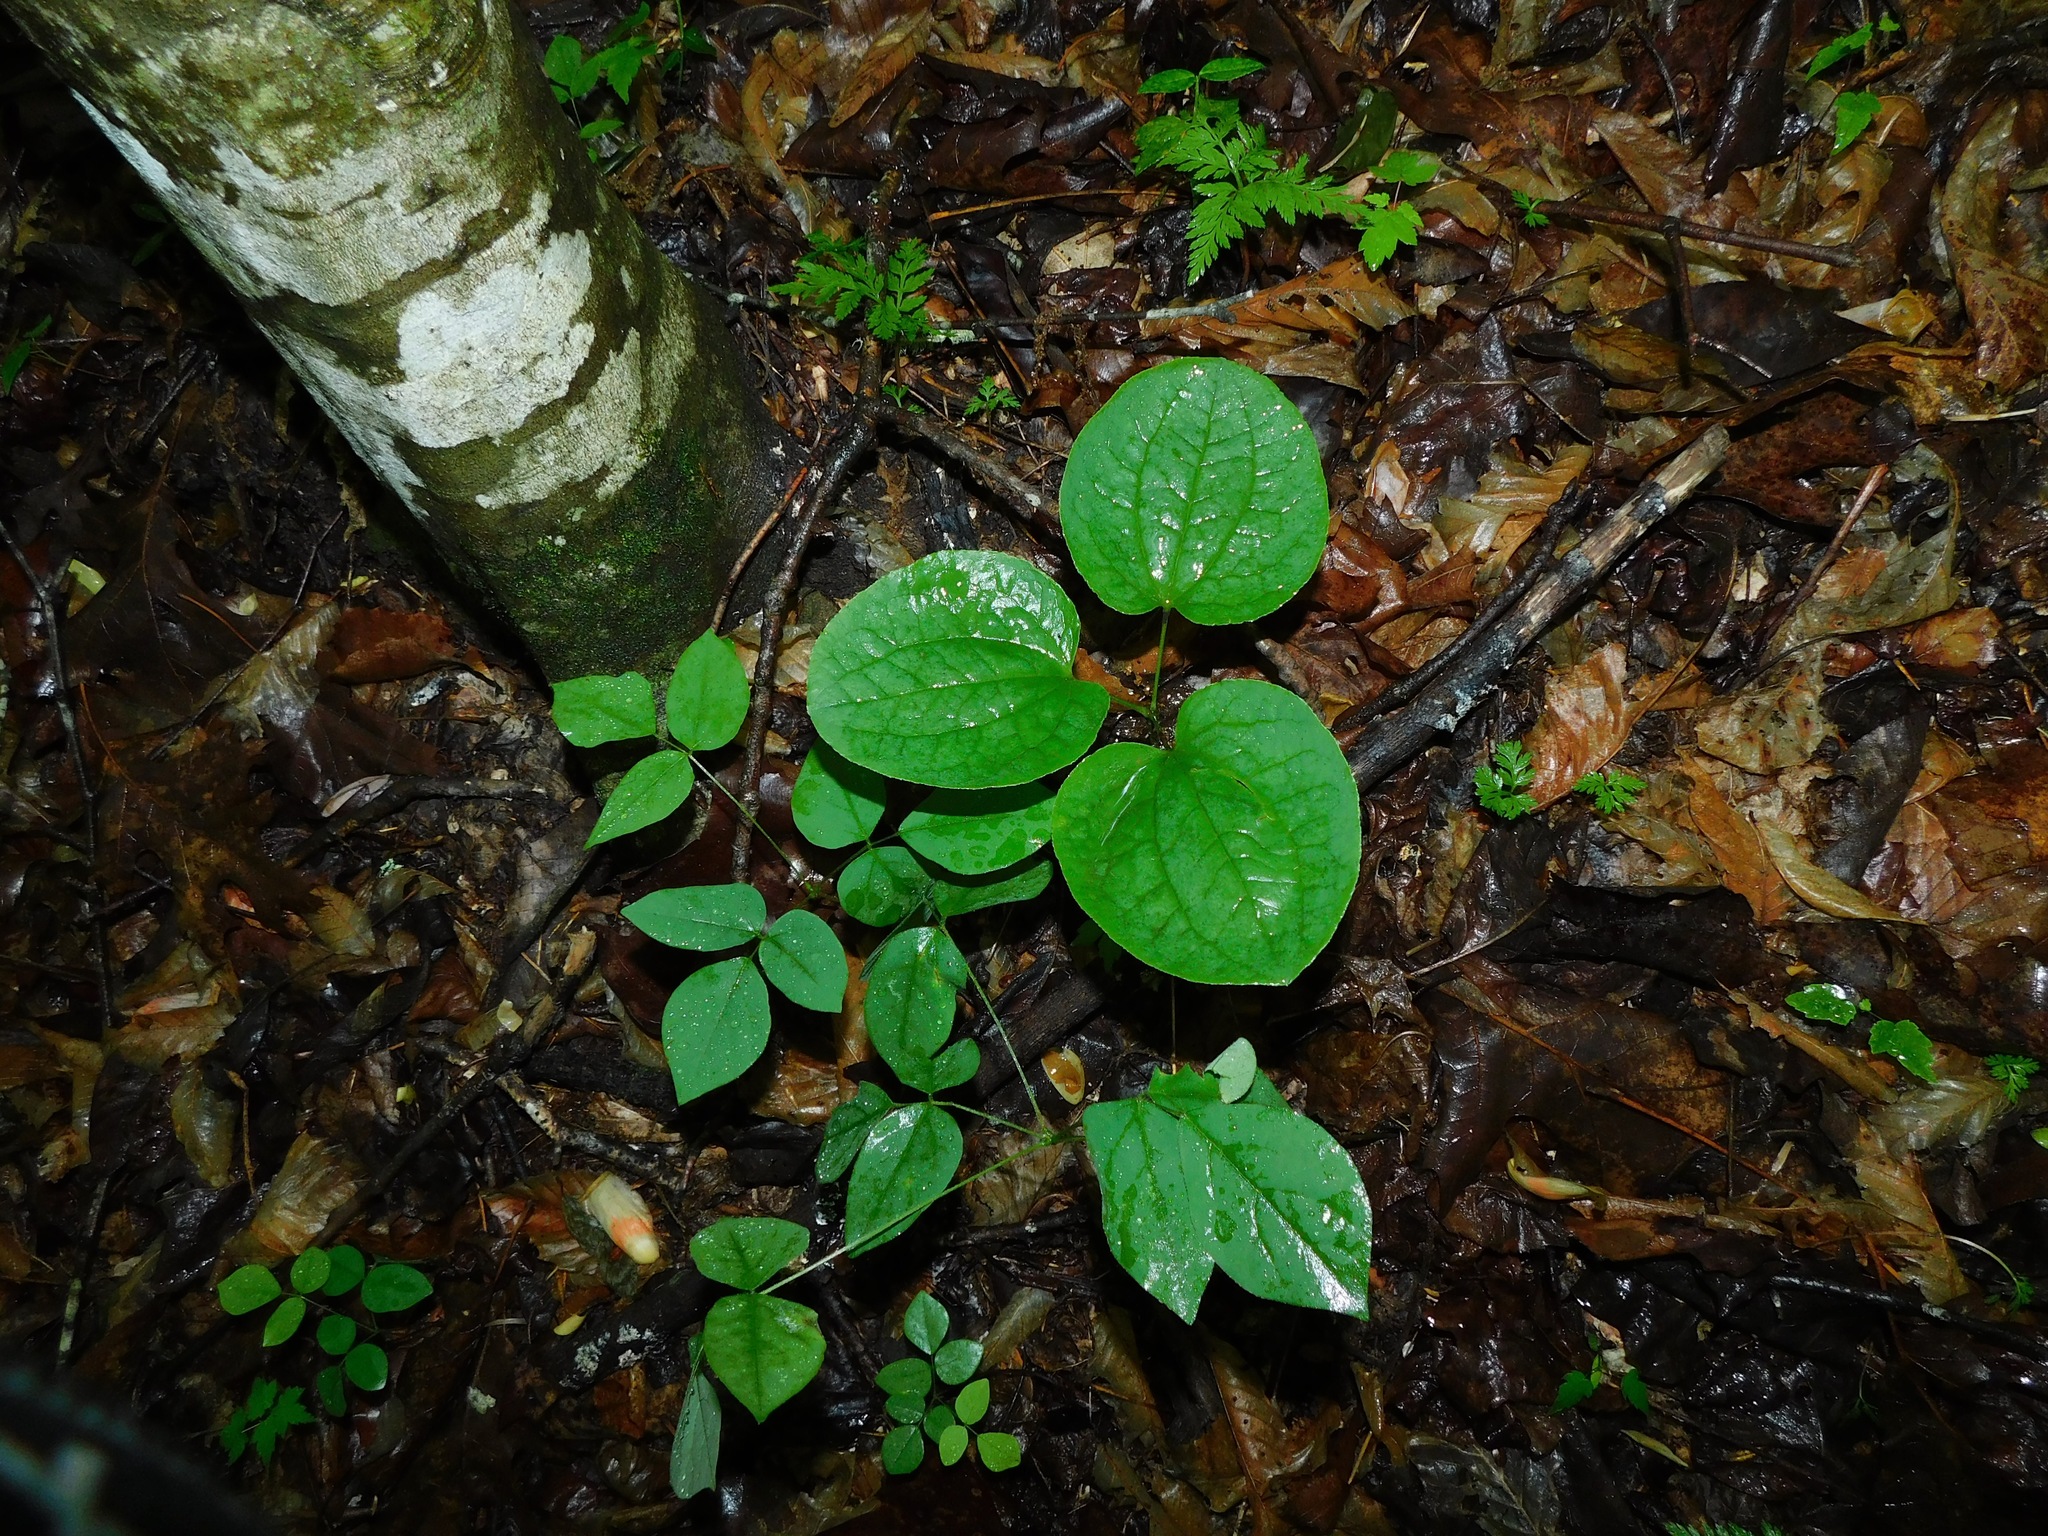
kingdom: Plantae
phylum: Tracheophyta
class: Liliopsida
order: Liliales
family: Smilacaceae
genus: Smilax
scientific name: Smilax hugeri
